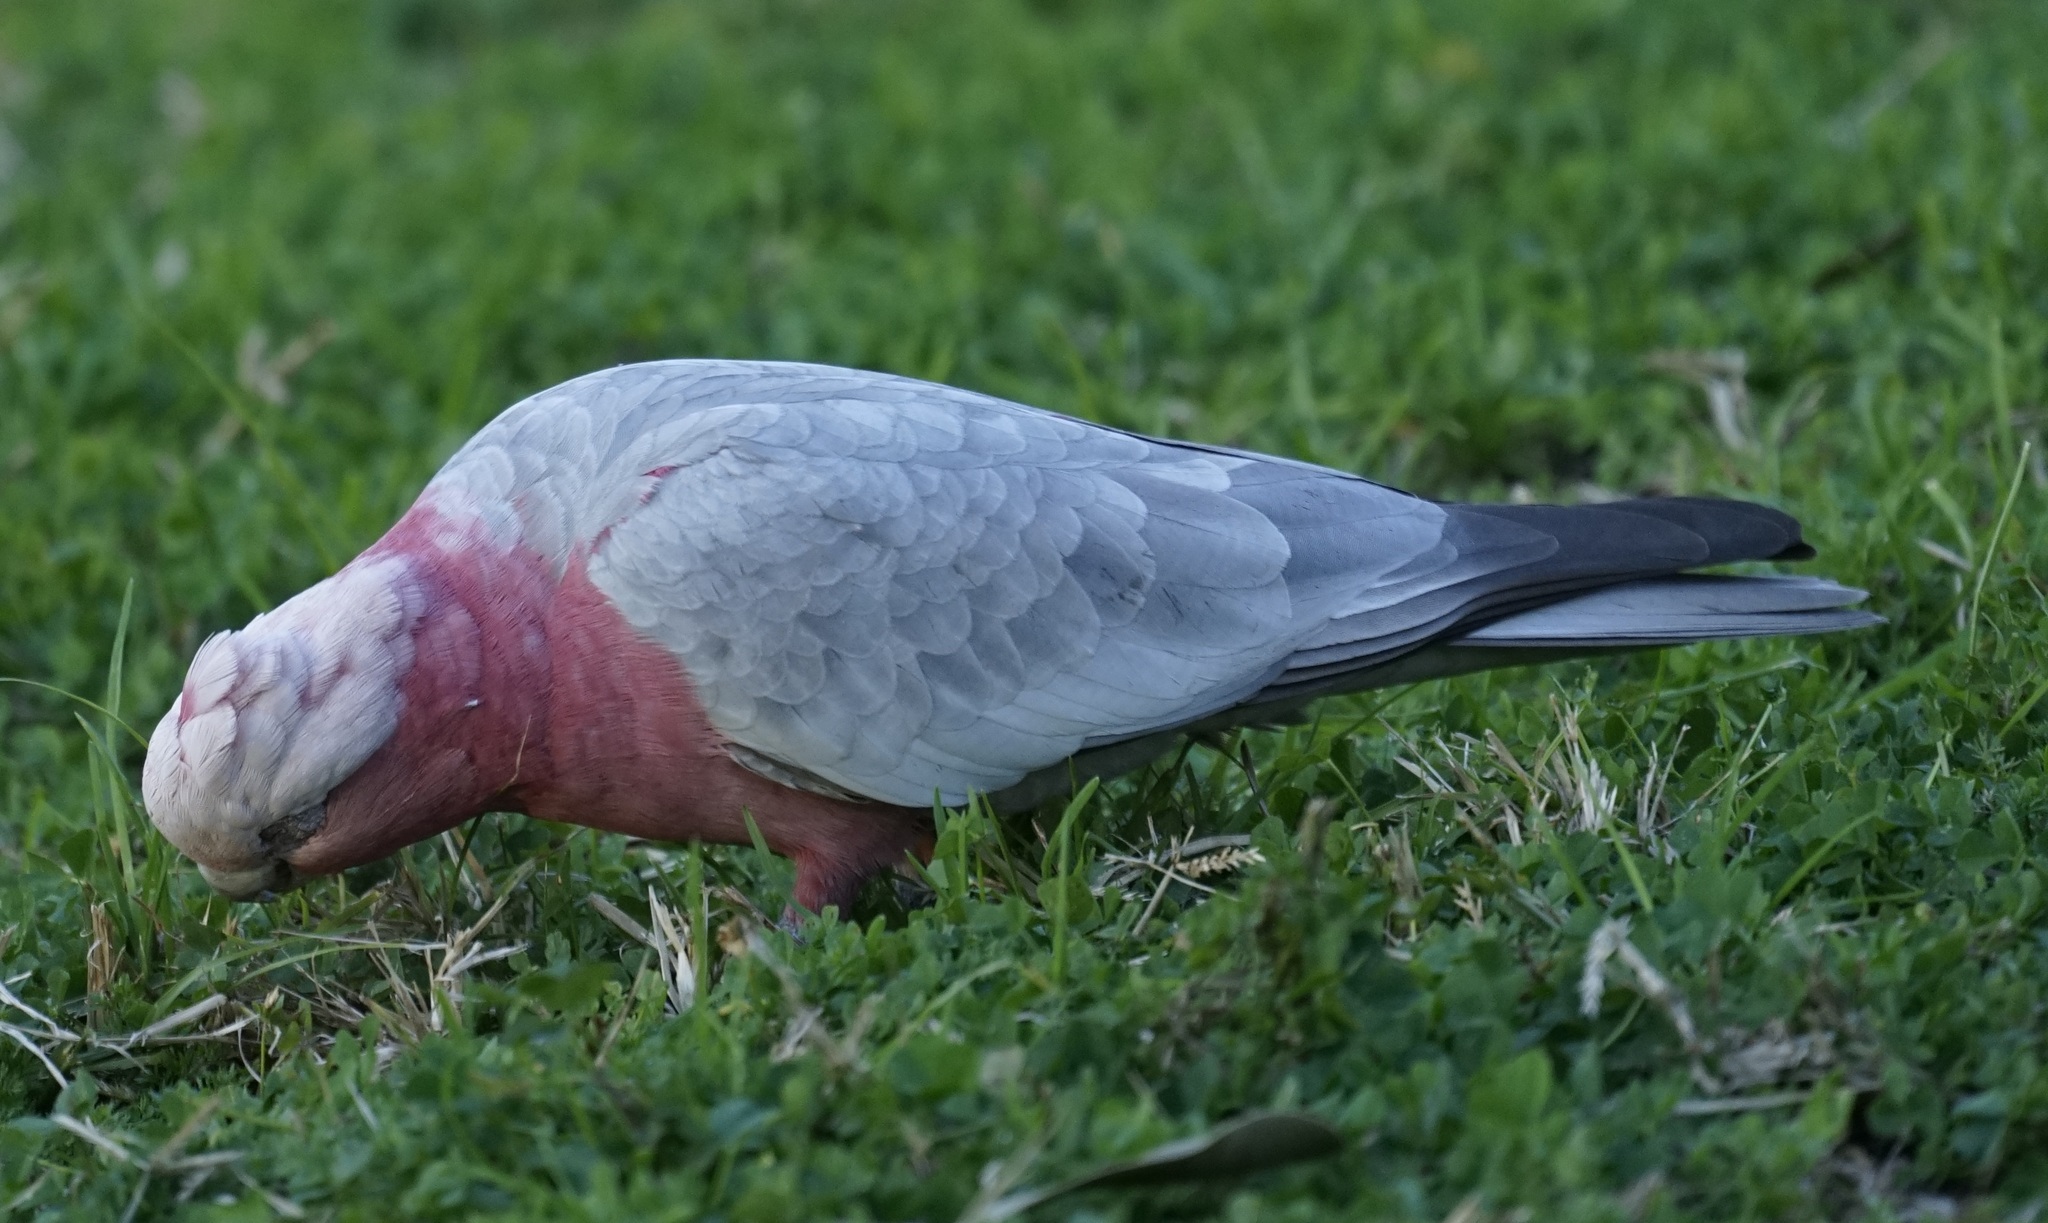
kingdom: Animalia
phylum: Chordata
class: Aves
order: Psittaciformes
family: Psittacidae
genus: Eolophus
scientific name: Eolophus roseicapilla
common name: Galah
